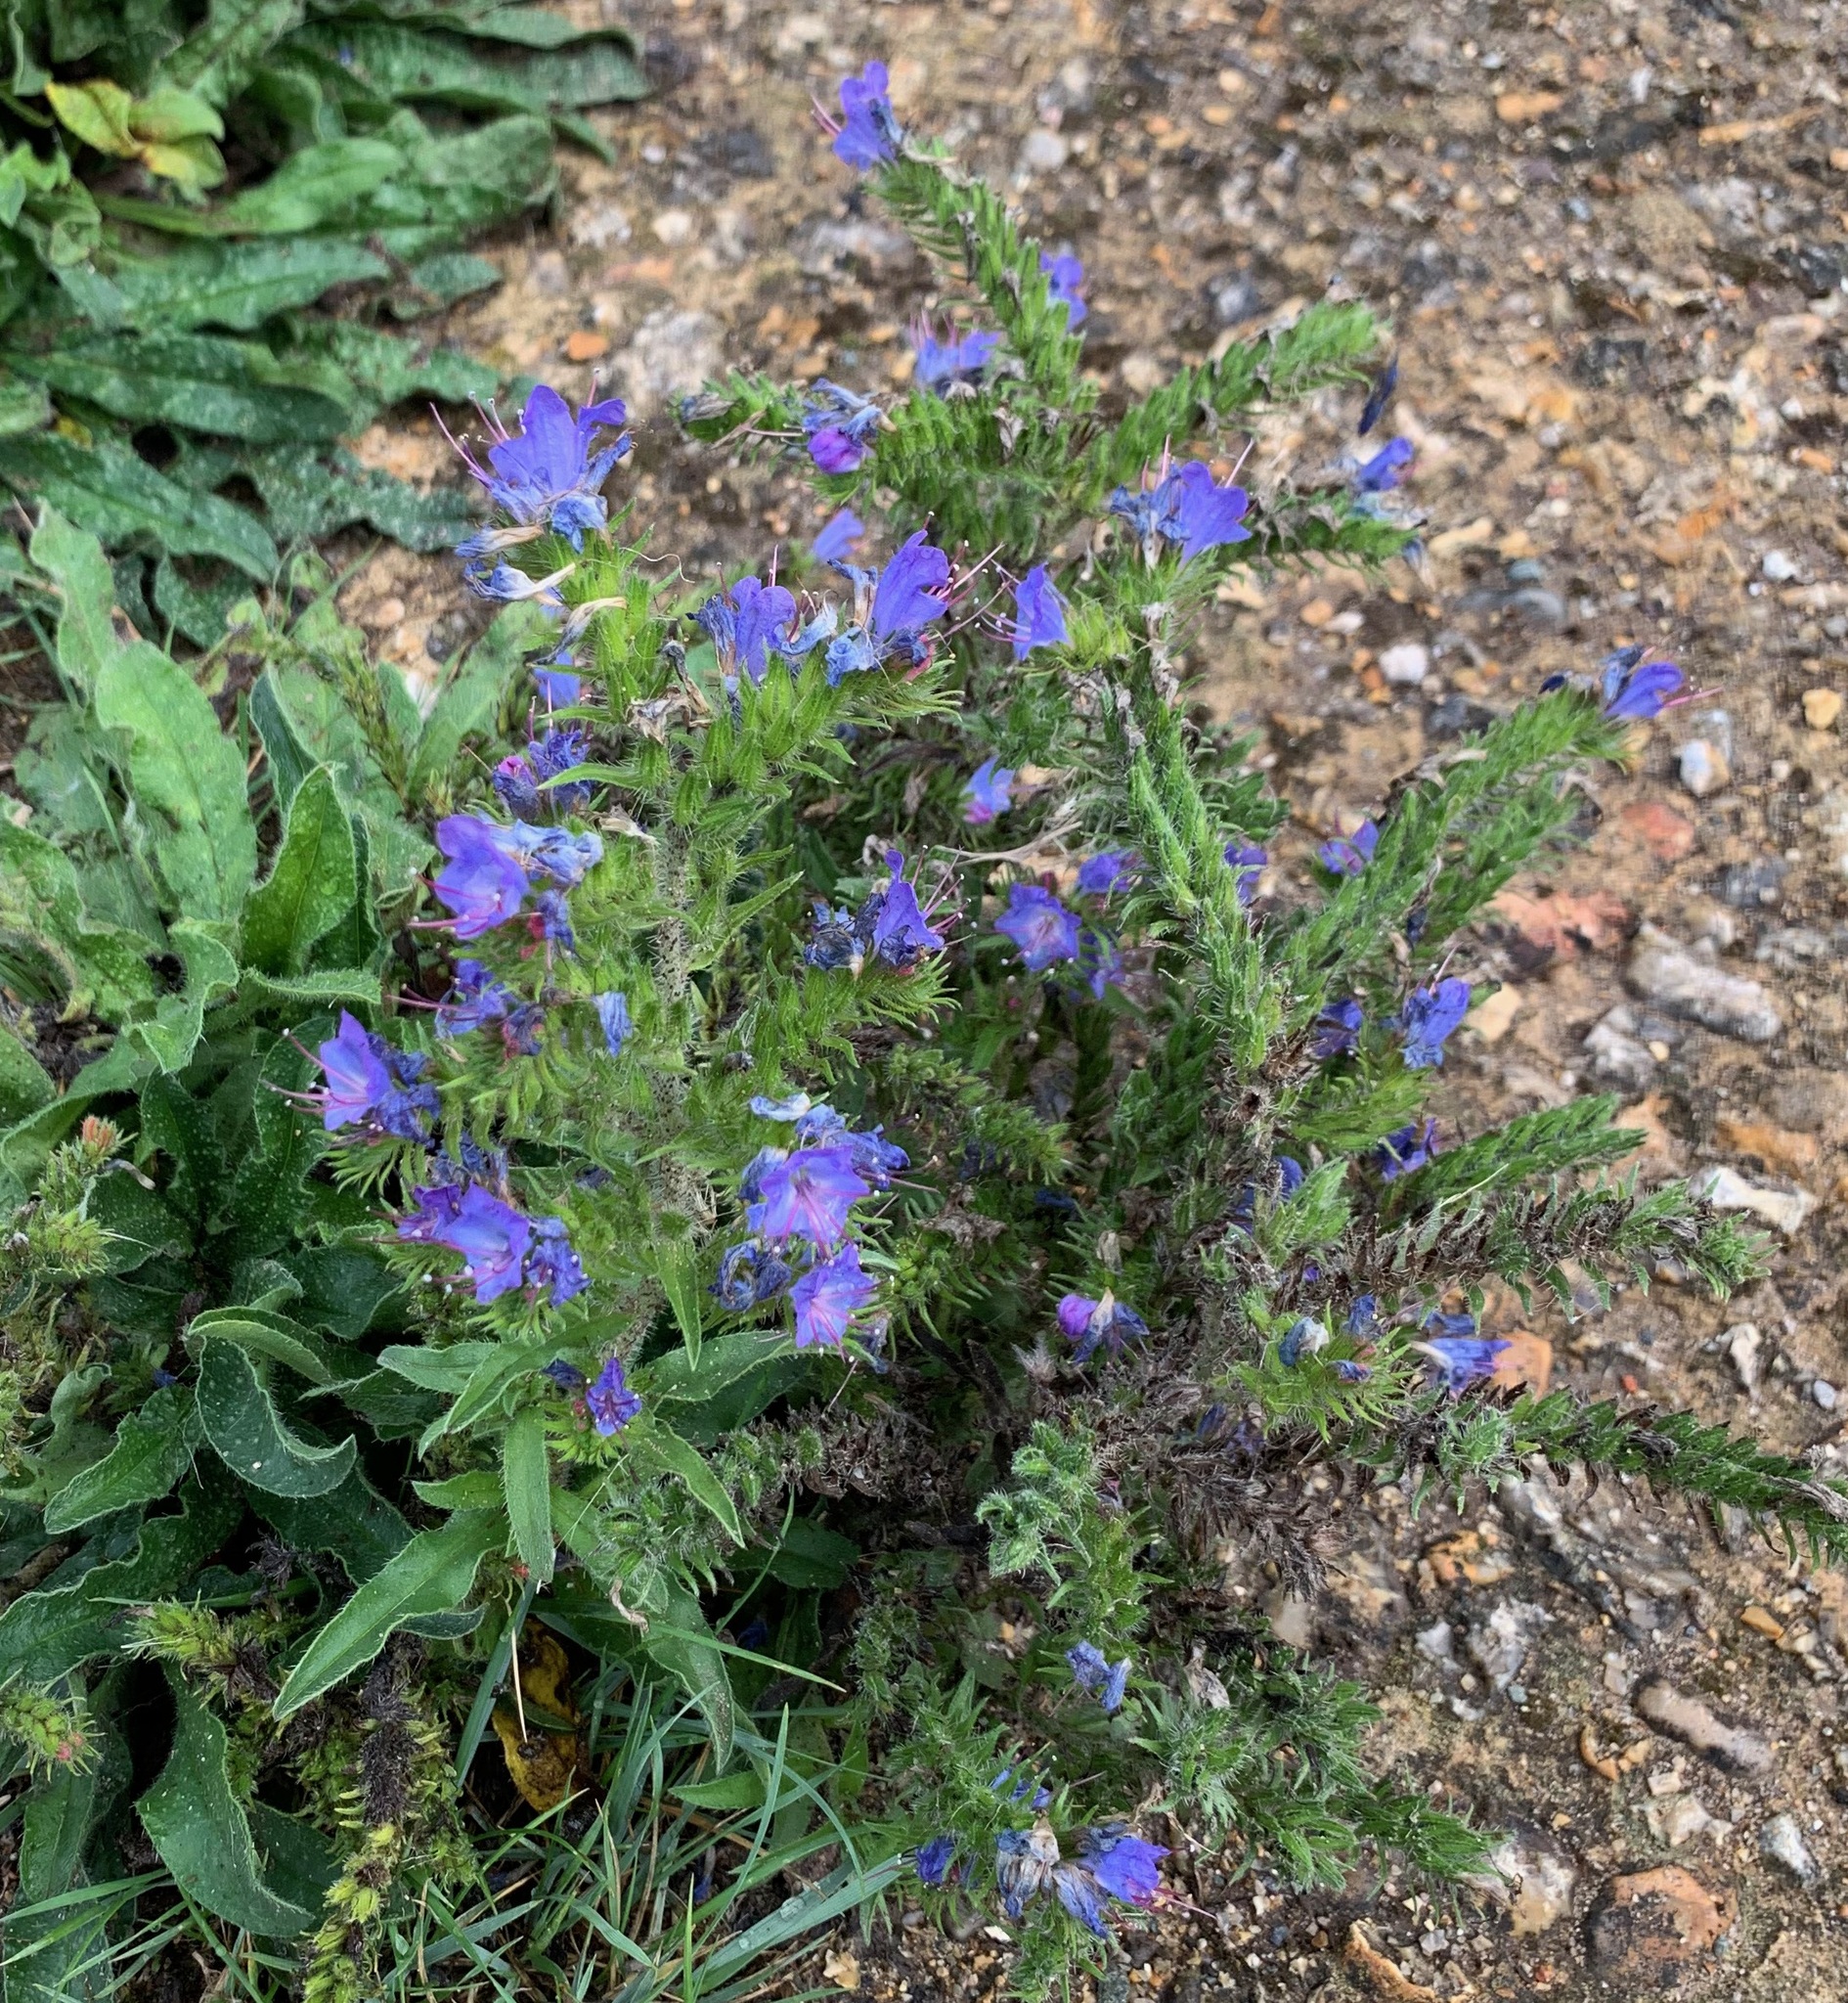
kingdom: Plantae
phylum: Tracheophyta
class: Magnoliopsida
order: Boraginales
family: Boraginaceae
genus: Echium
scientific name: Echium vulgare
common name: Common viper's bugloss
